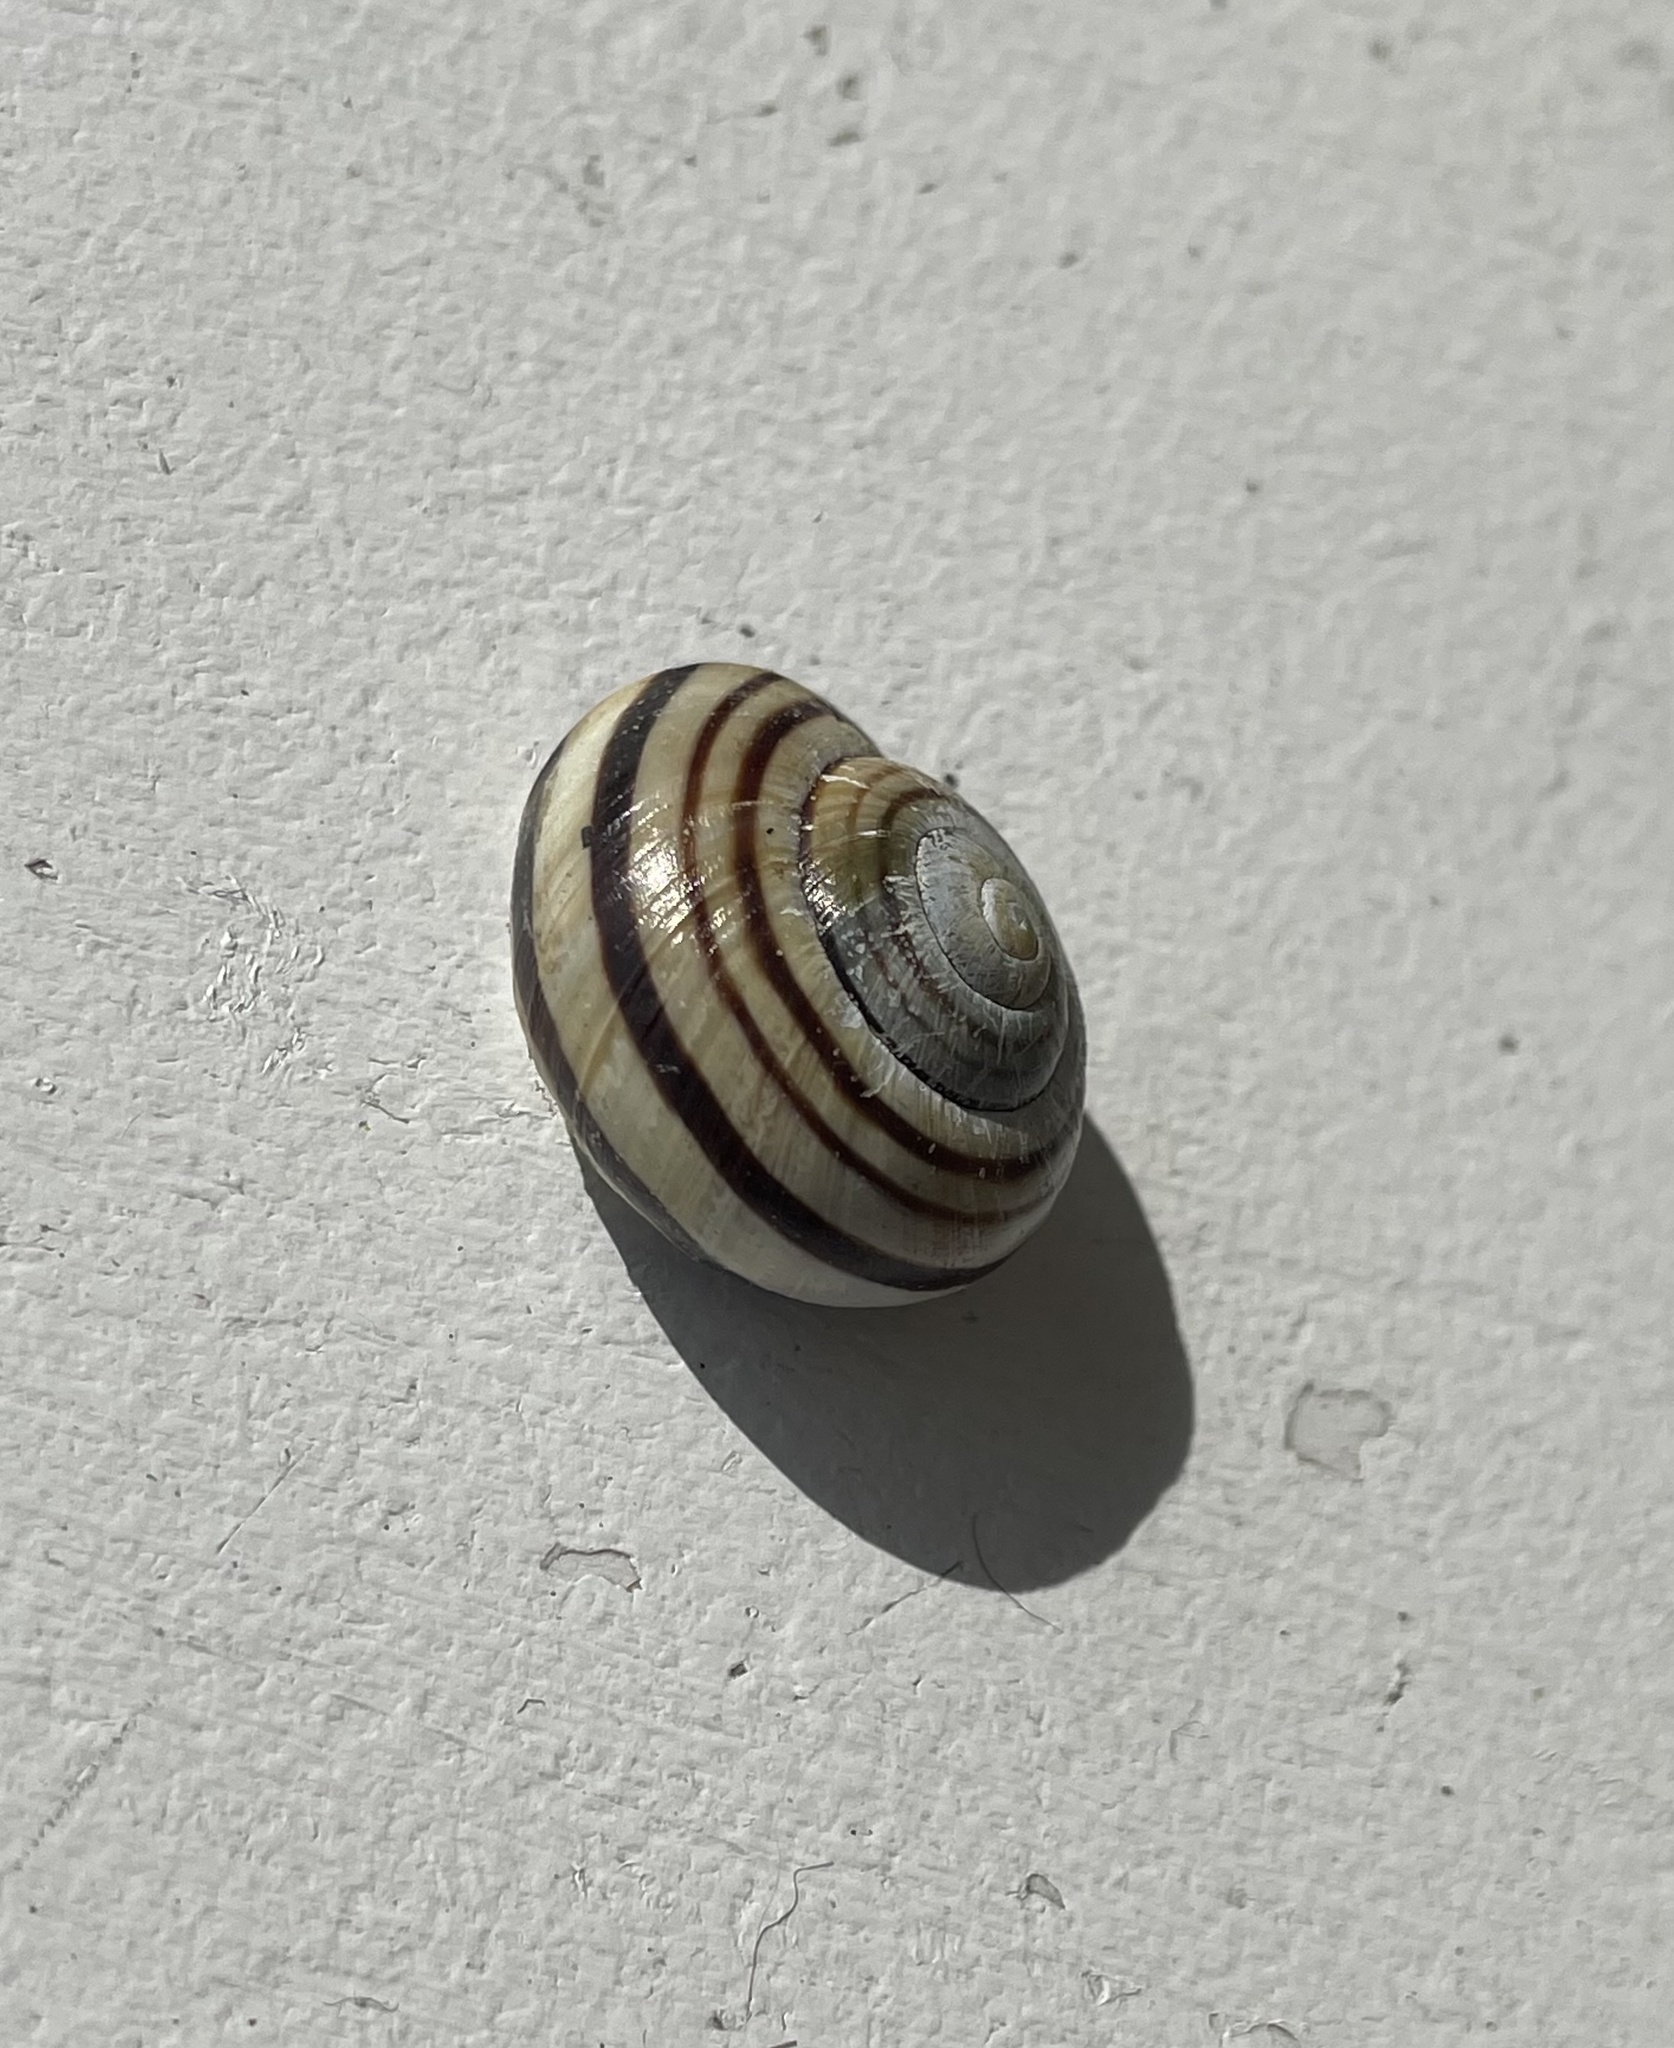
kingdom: Animalia
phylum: Mollusca
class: Gastropoda
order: Stylommatophora
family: Helicidae
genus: Cepaea
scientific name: Cepaea nemoralis
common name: Grovesnail
